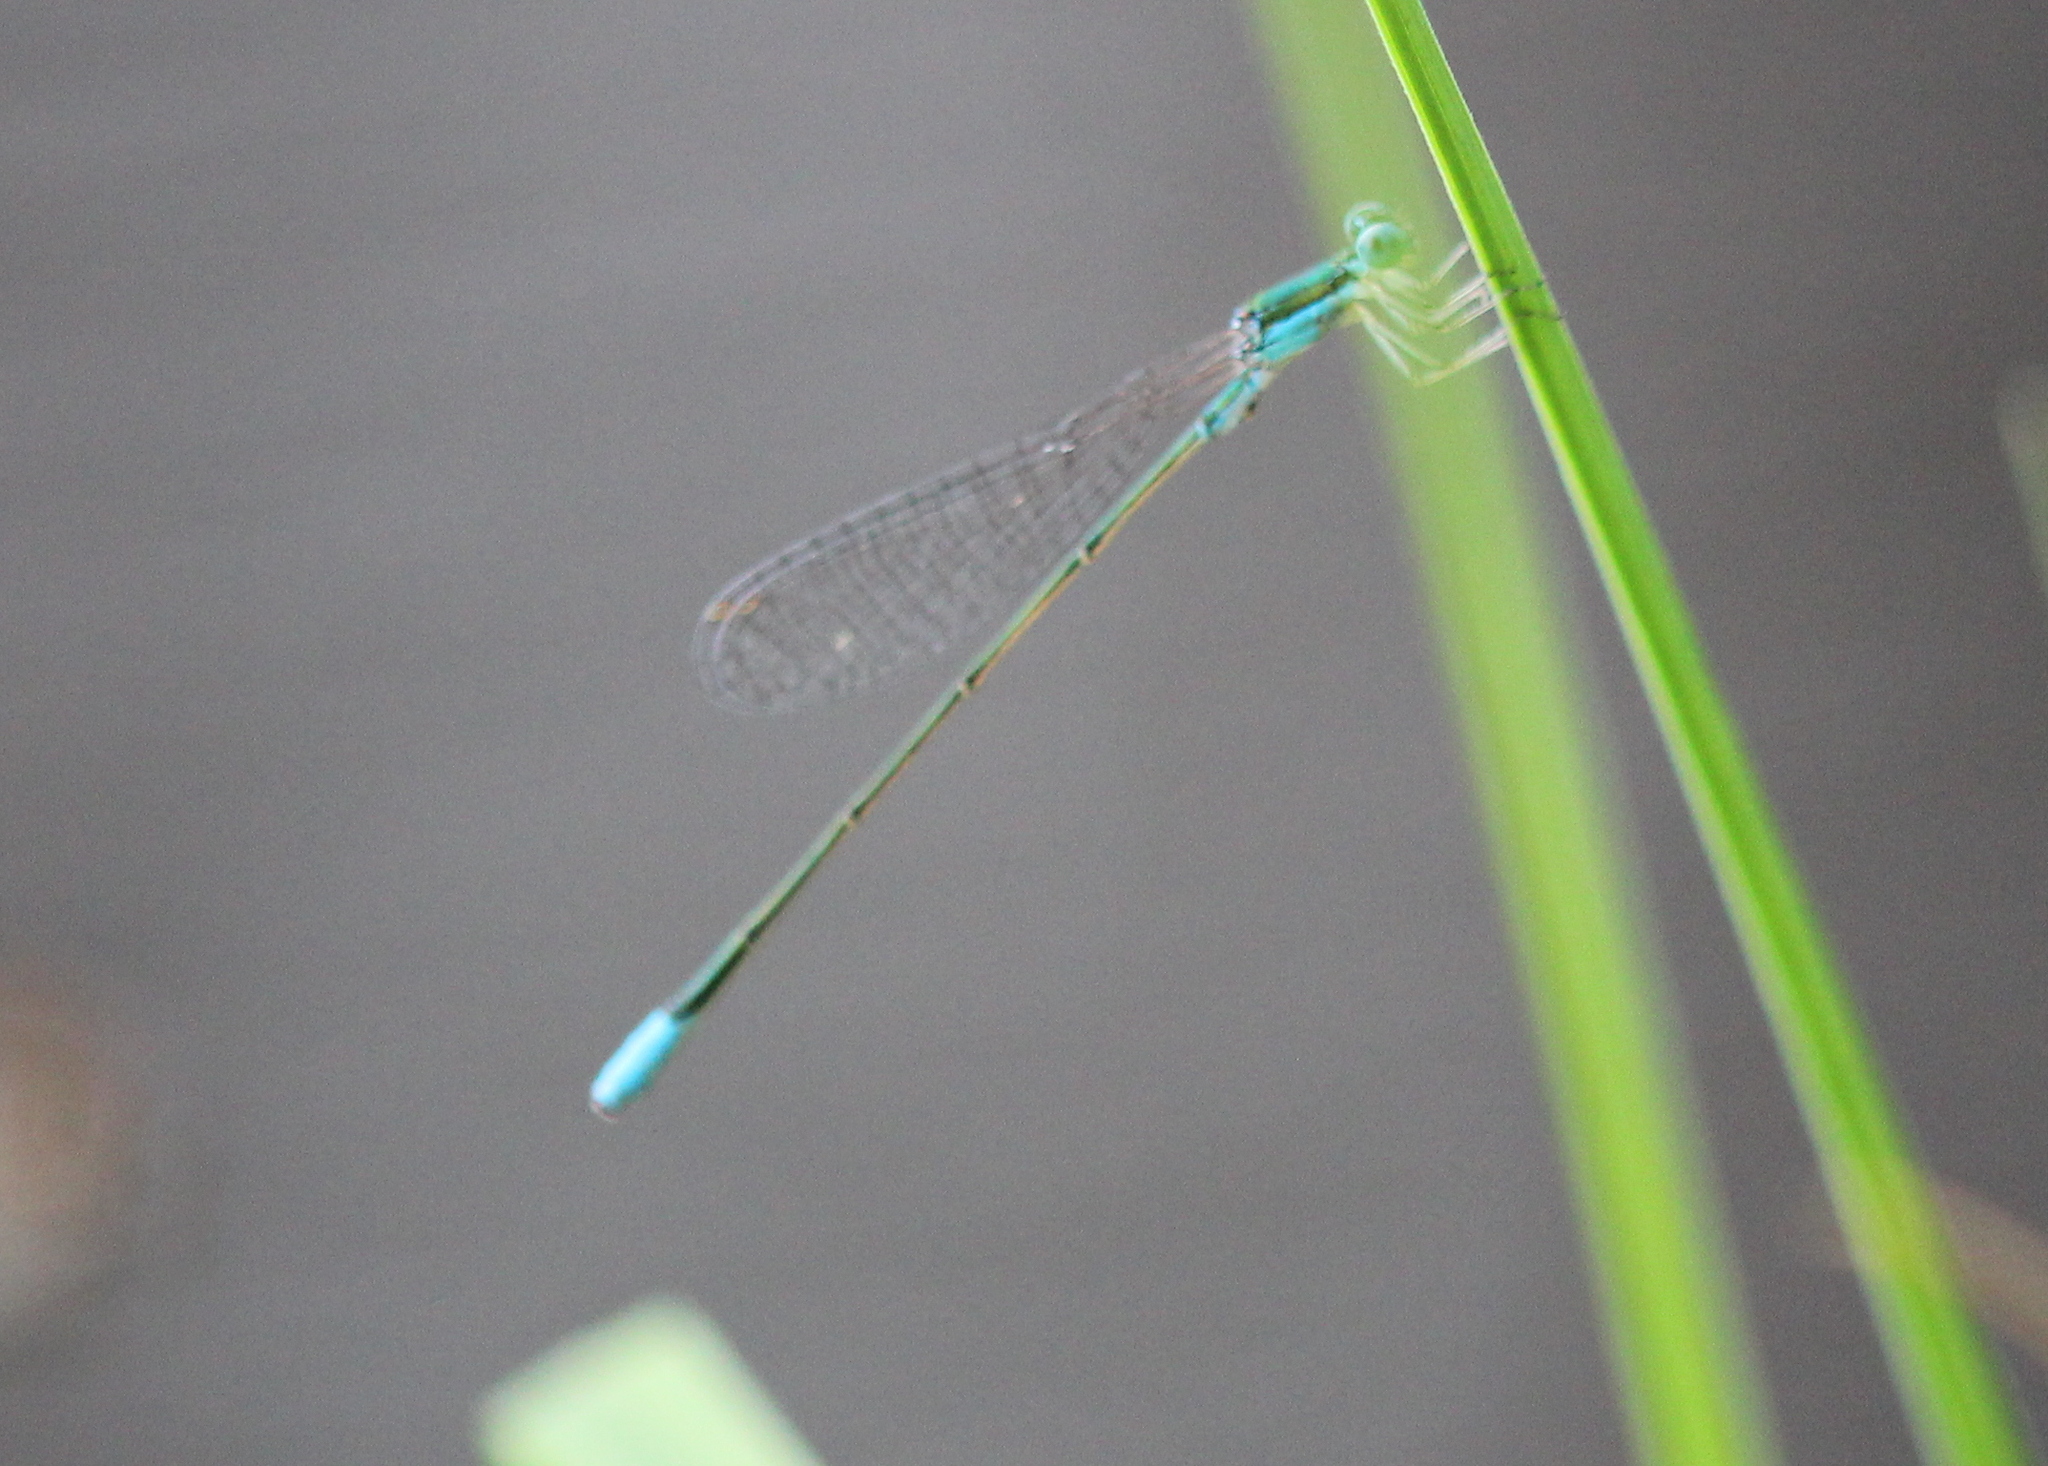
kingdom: Animalia
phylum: Arthropoda
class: Insecta
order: Odonata
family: Coenagrionidae
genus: Nehalennia
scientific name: Nehalennia gracilis
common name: Sphagnum sprite
